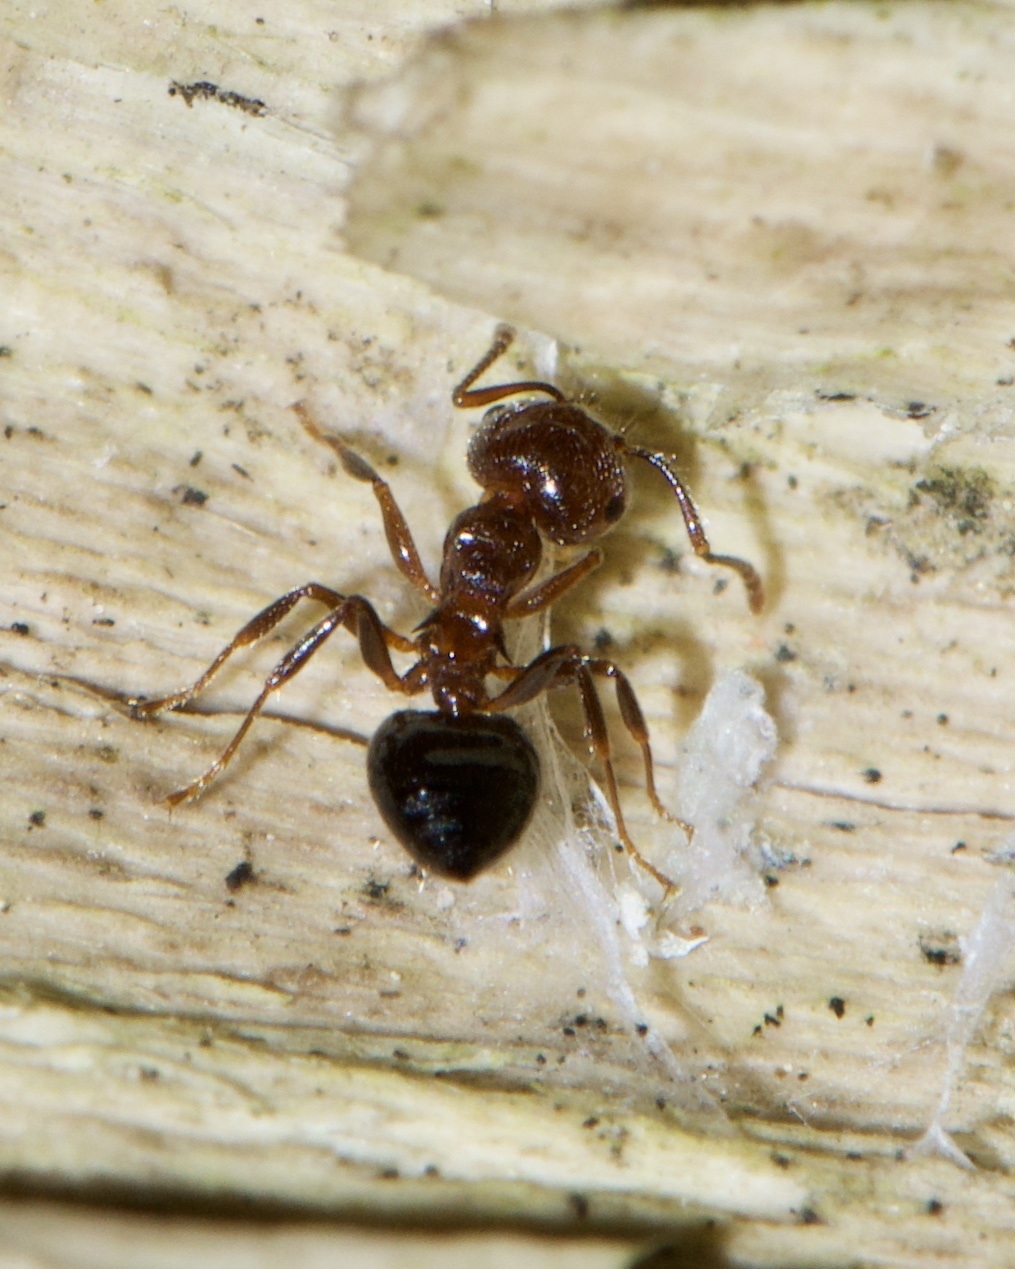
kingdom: Animalia
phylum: Arthropoda
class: Insecta
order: Hymenoptera
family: Formicidae
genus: Crematogaster
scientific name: Crematogaster pilosa
